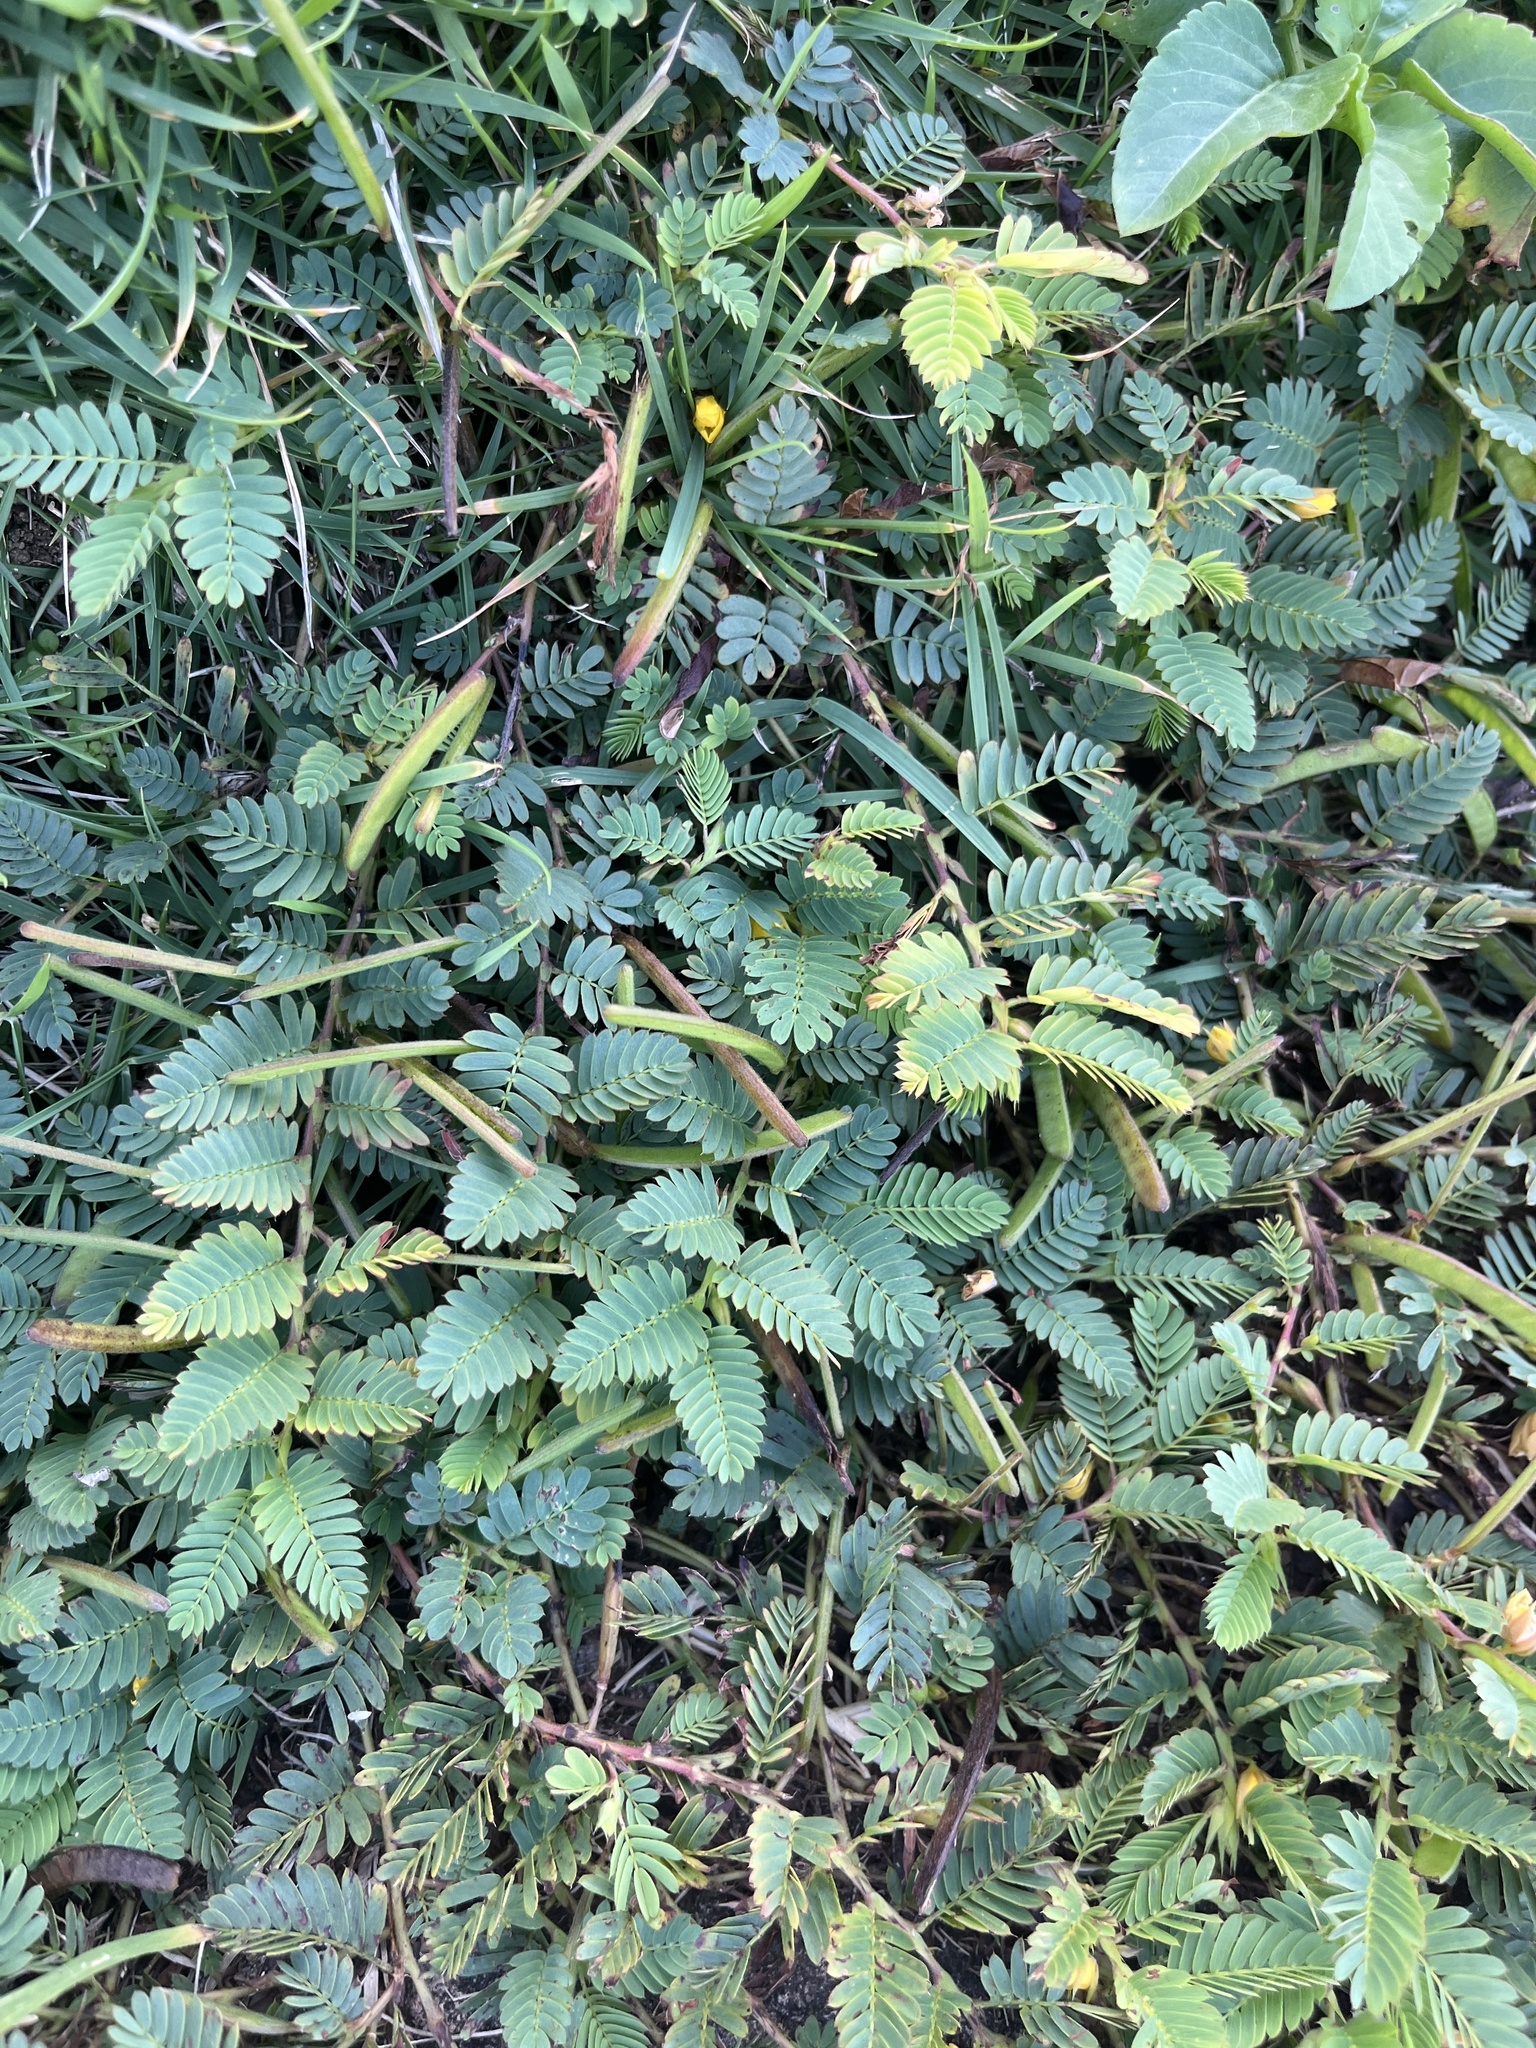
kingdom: Plantae
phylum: Tracheophyta
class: Magnoliopsida
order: Fabales
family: Fabaceae
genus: Chamaecrista
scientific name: Chamaecrista nictitans
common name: Sensitive cassia
